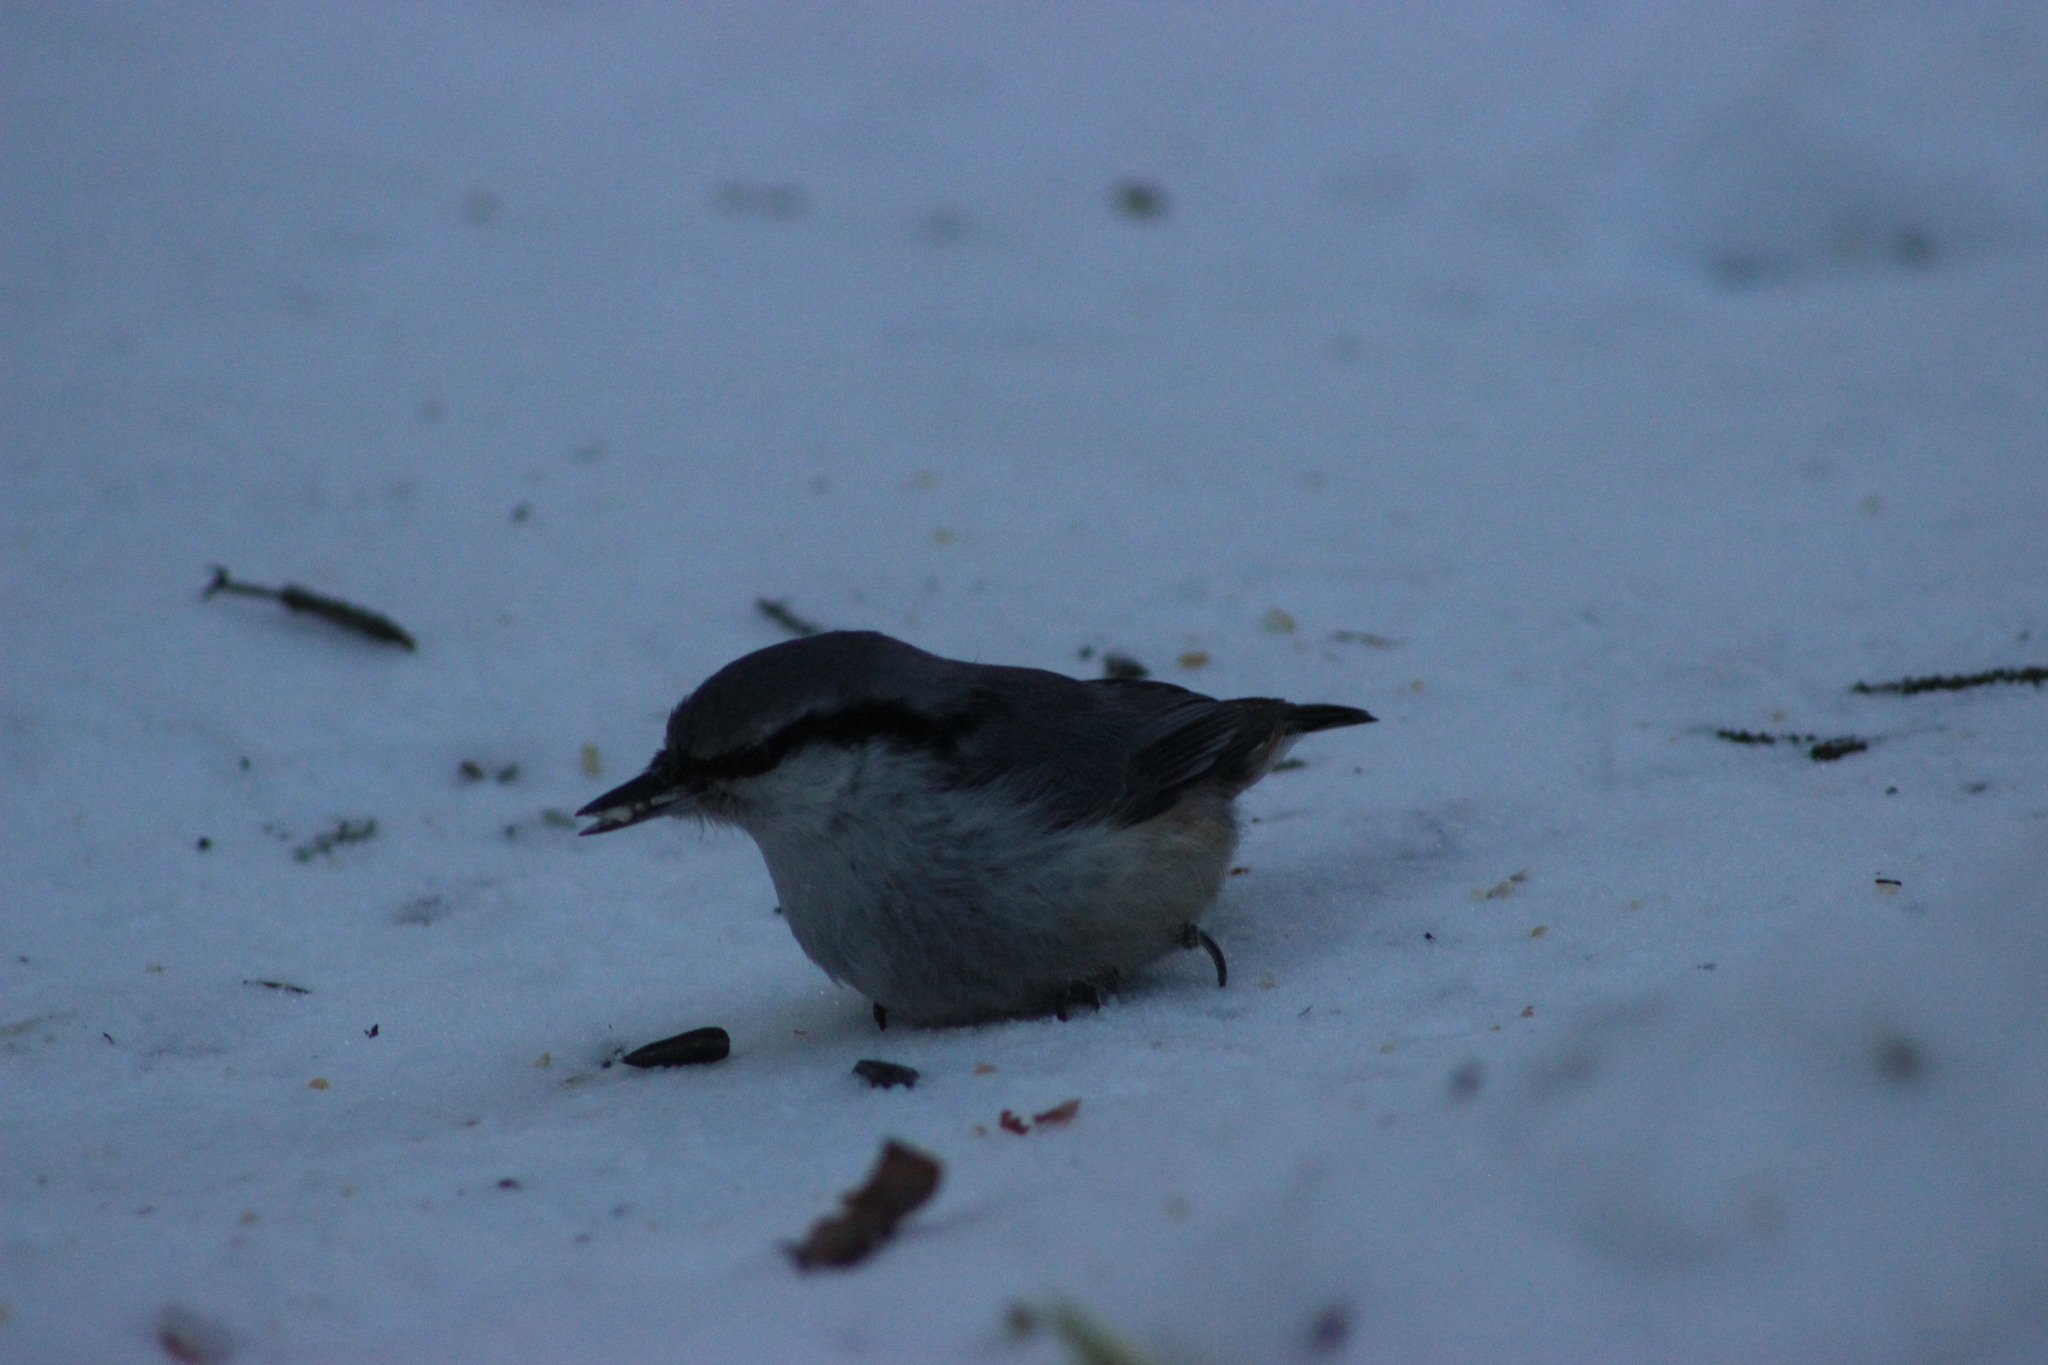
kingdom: Animalia
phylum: Chordata
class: Aves
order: Passeriformes
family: Sittidae
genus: Sitta
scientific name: Sitta europaea
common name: Eurasian nuthatch
